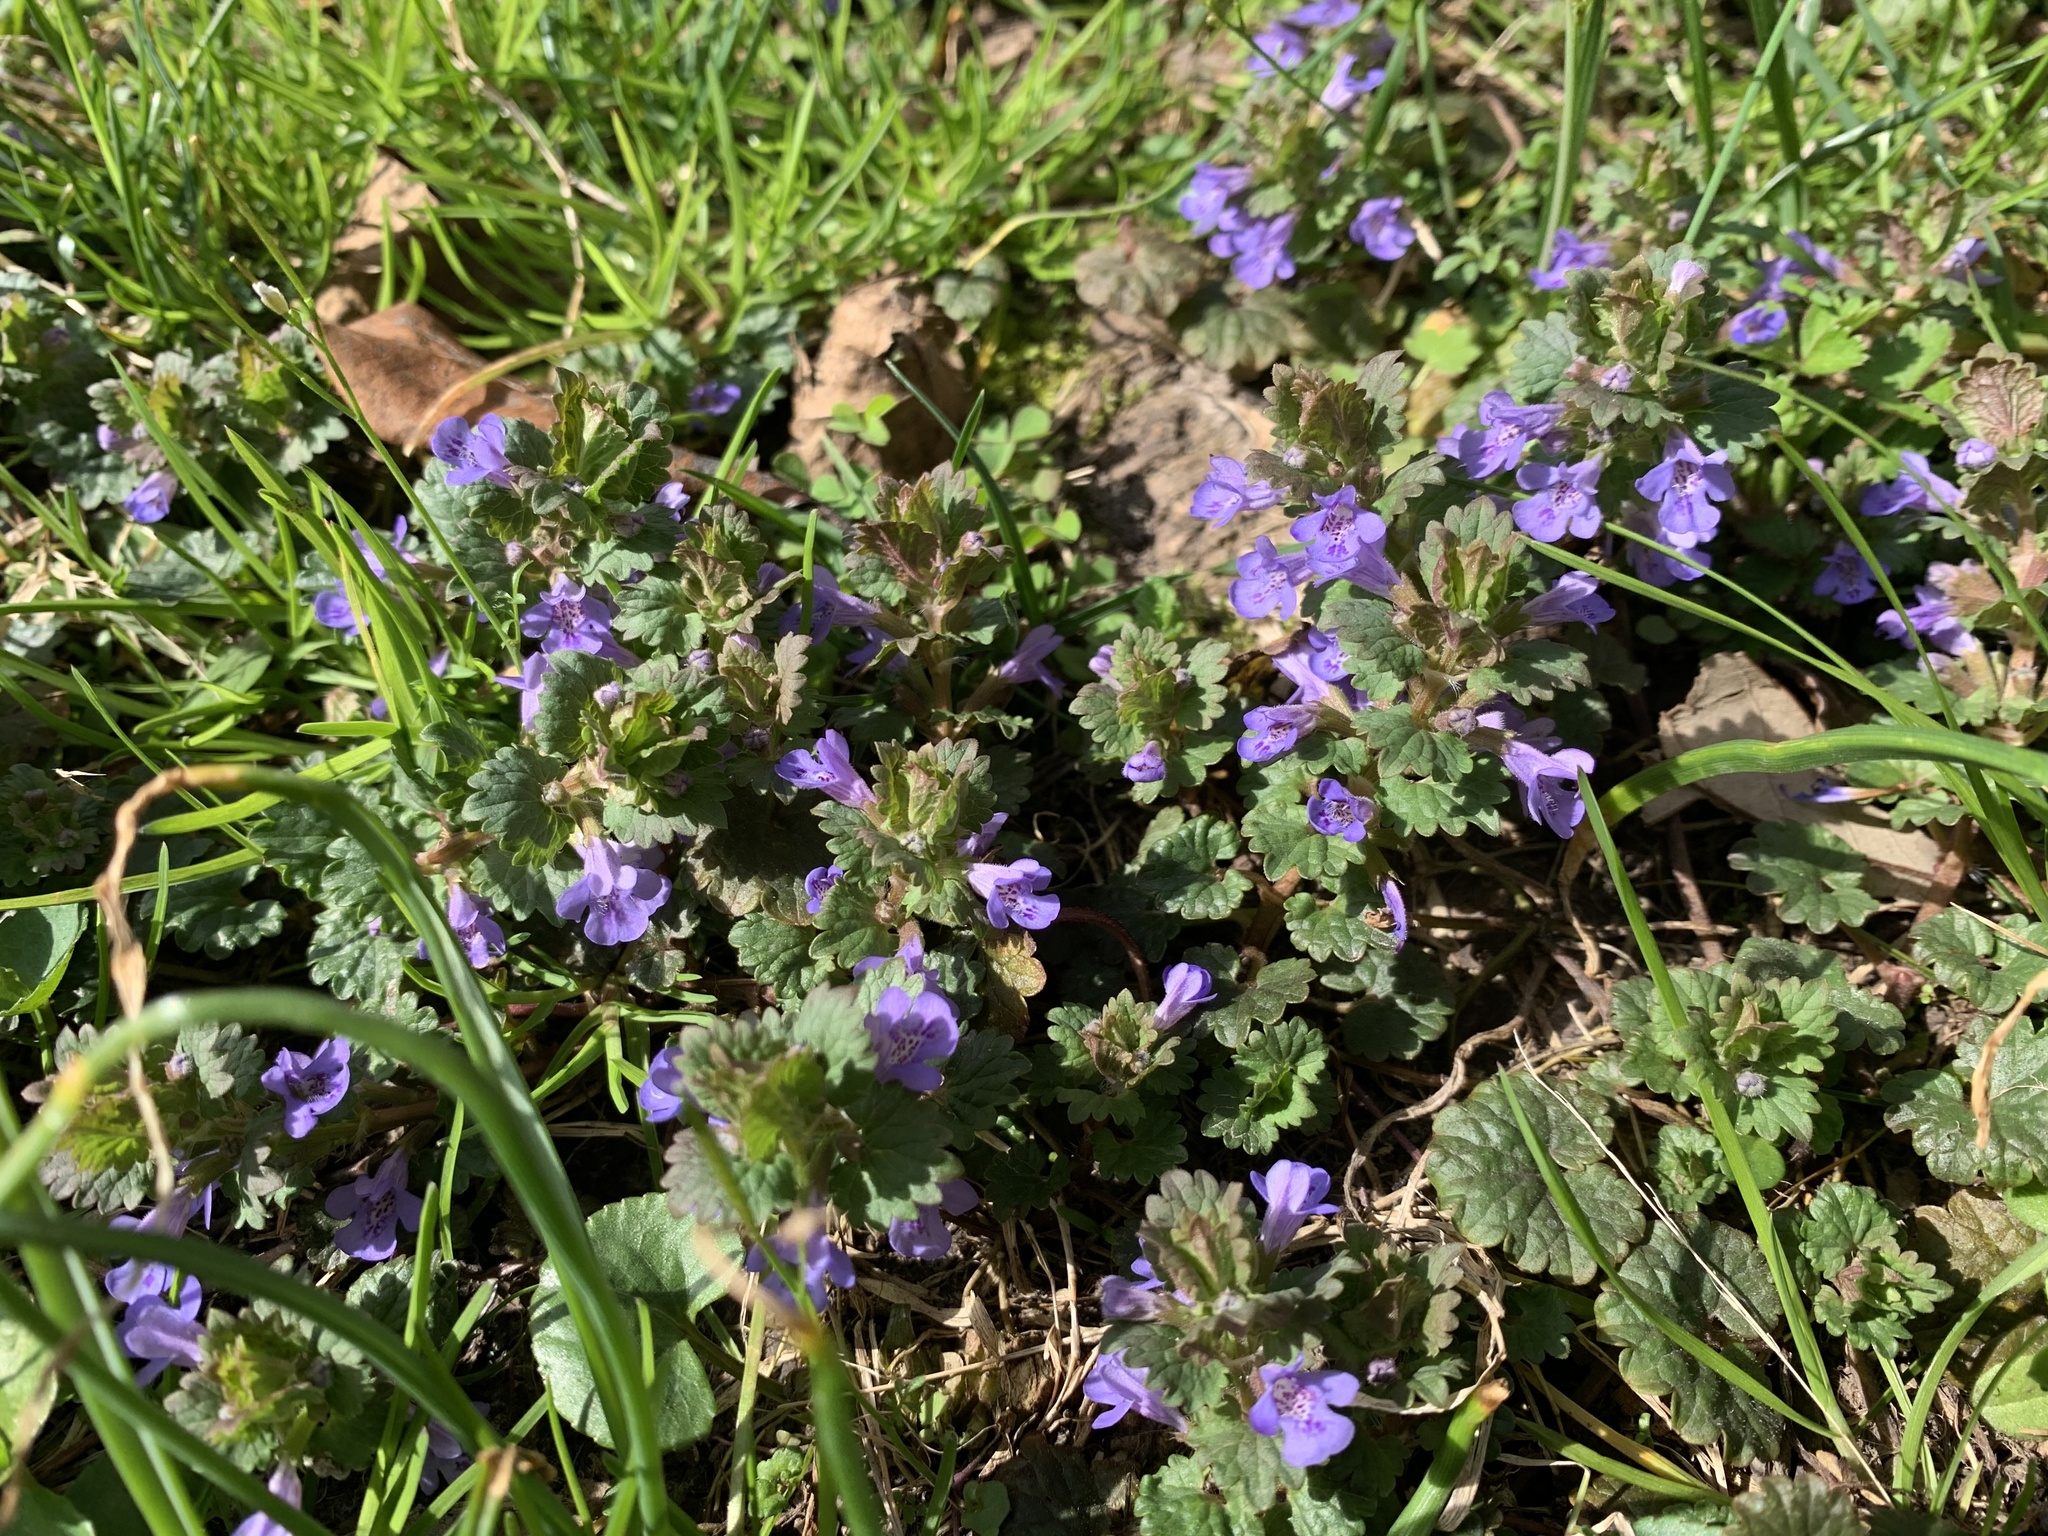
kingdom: Plantae
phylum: Tracheophyta
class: Magnoliopsida
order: Lamiales
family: Lamiaceae
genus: Glechoma
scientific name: Glechoma hederacea
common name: Ground ivy
